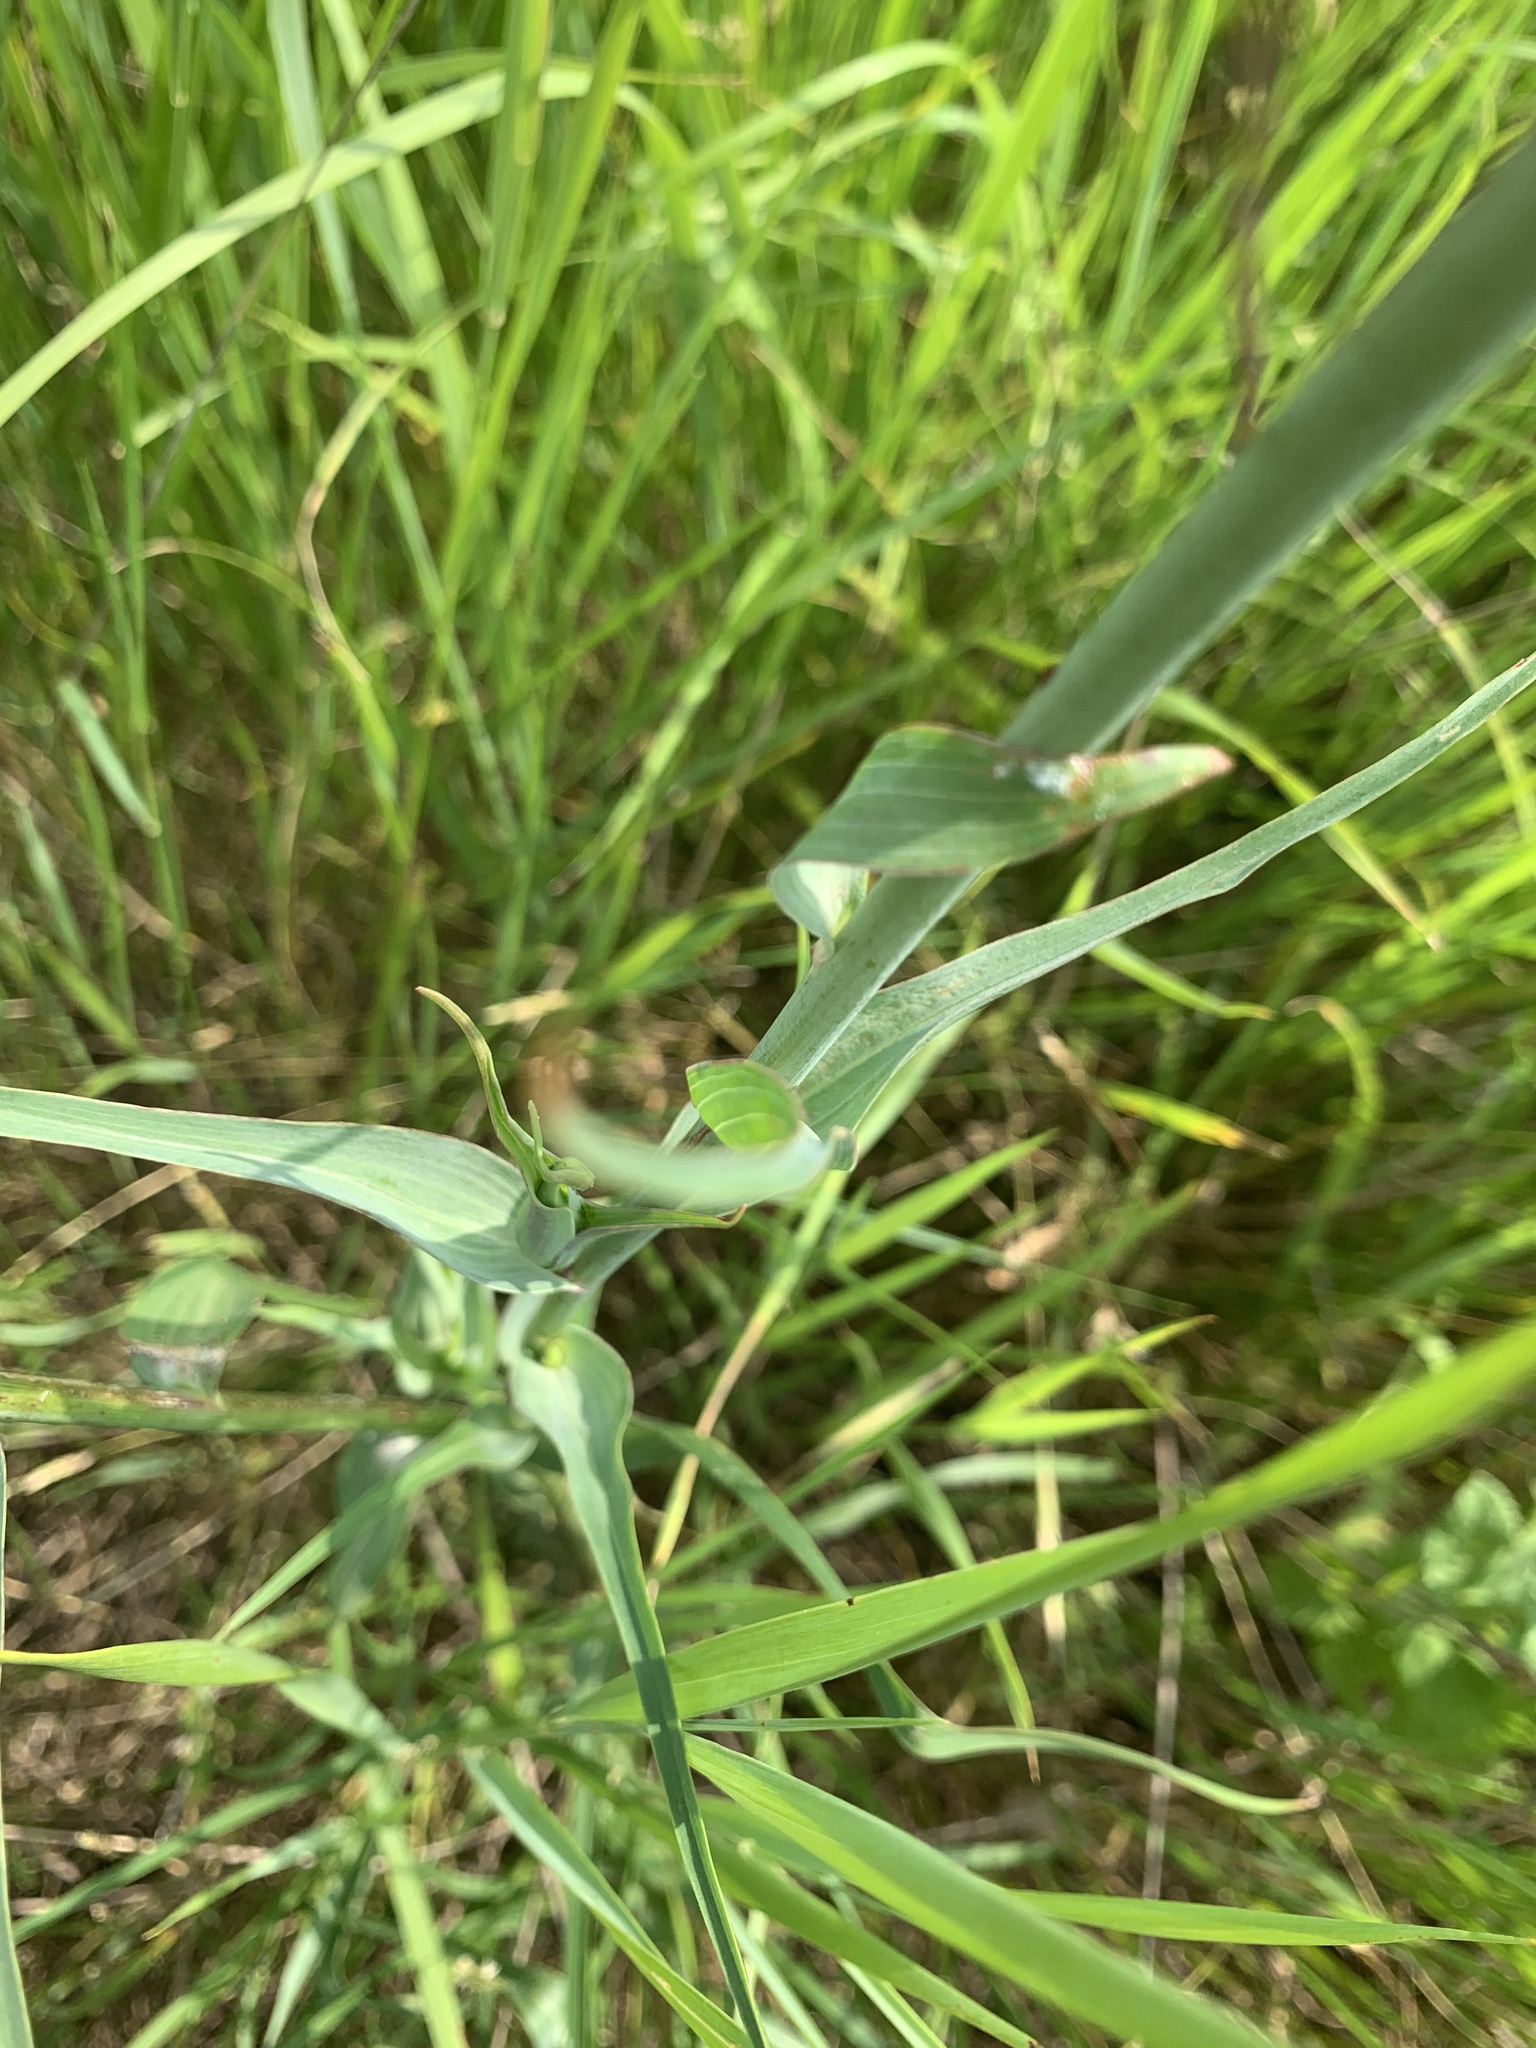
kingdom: Plantae
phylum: Tracheophyta
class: Magnoliopsida
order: Asterales
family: Asteraceae
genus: Tragopogon
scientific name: Tragopogon dubius
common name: Yellow salsify
